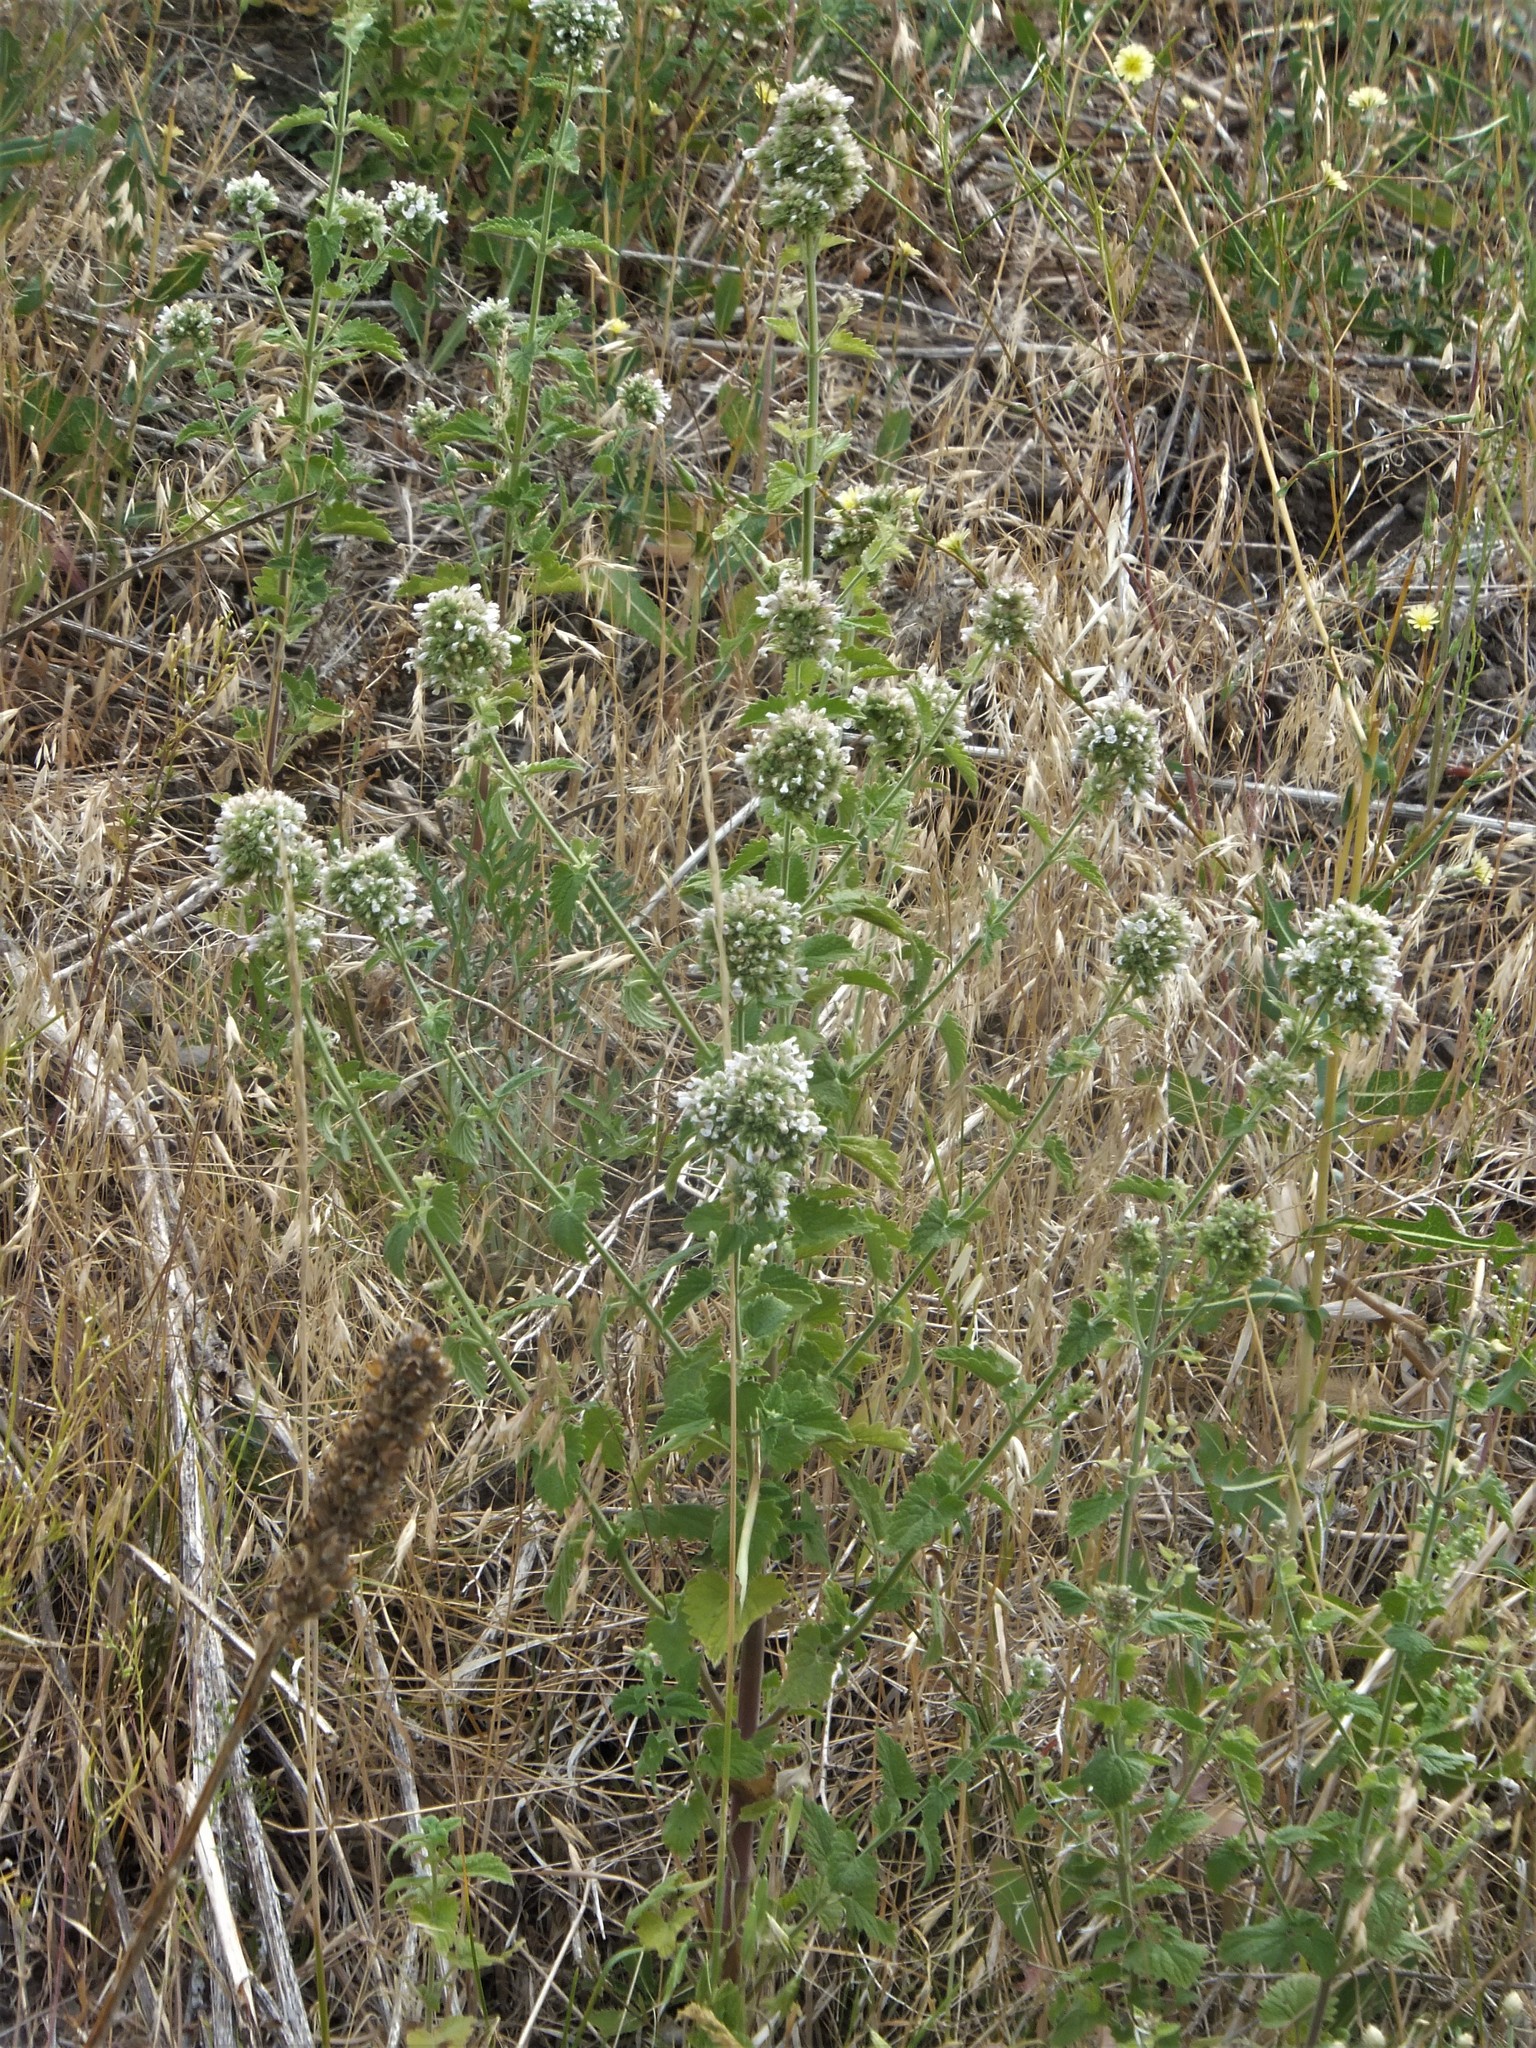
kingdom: Plantae
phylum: Tracheophyta
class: Magnoliopsida
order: Lamiales
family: Lamiaceae
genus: Nepeta
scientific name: Nepeta cataria
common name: Catnip
